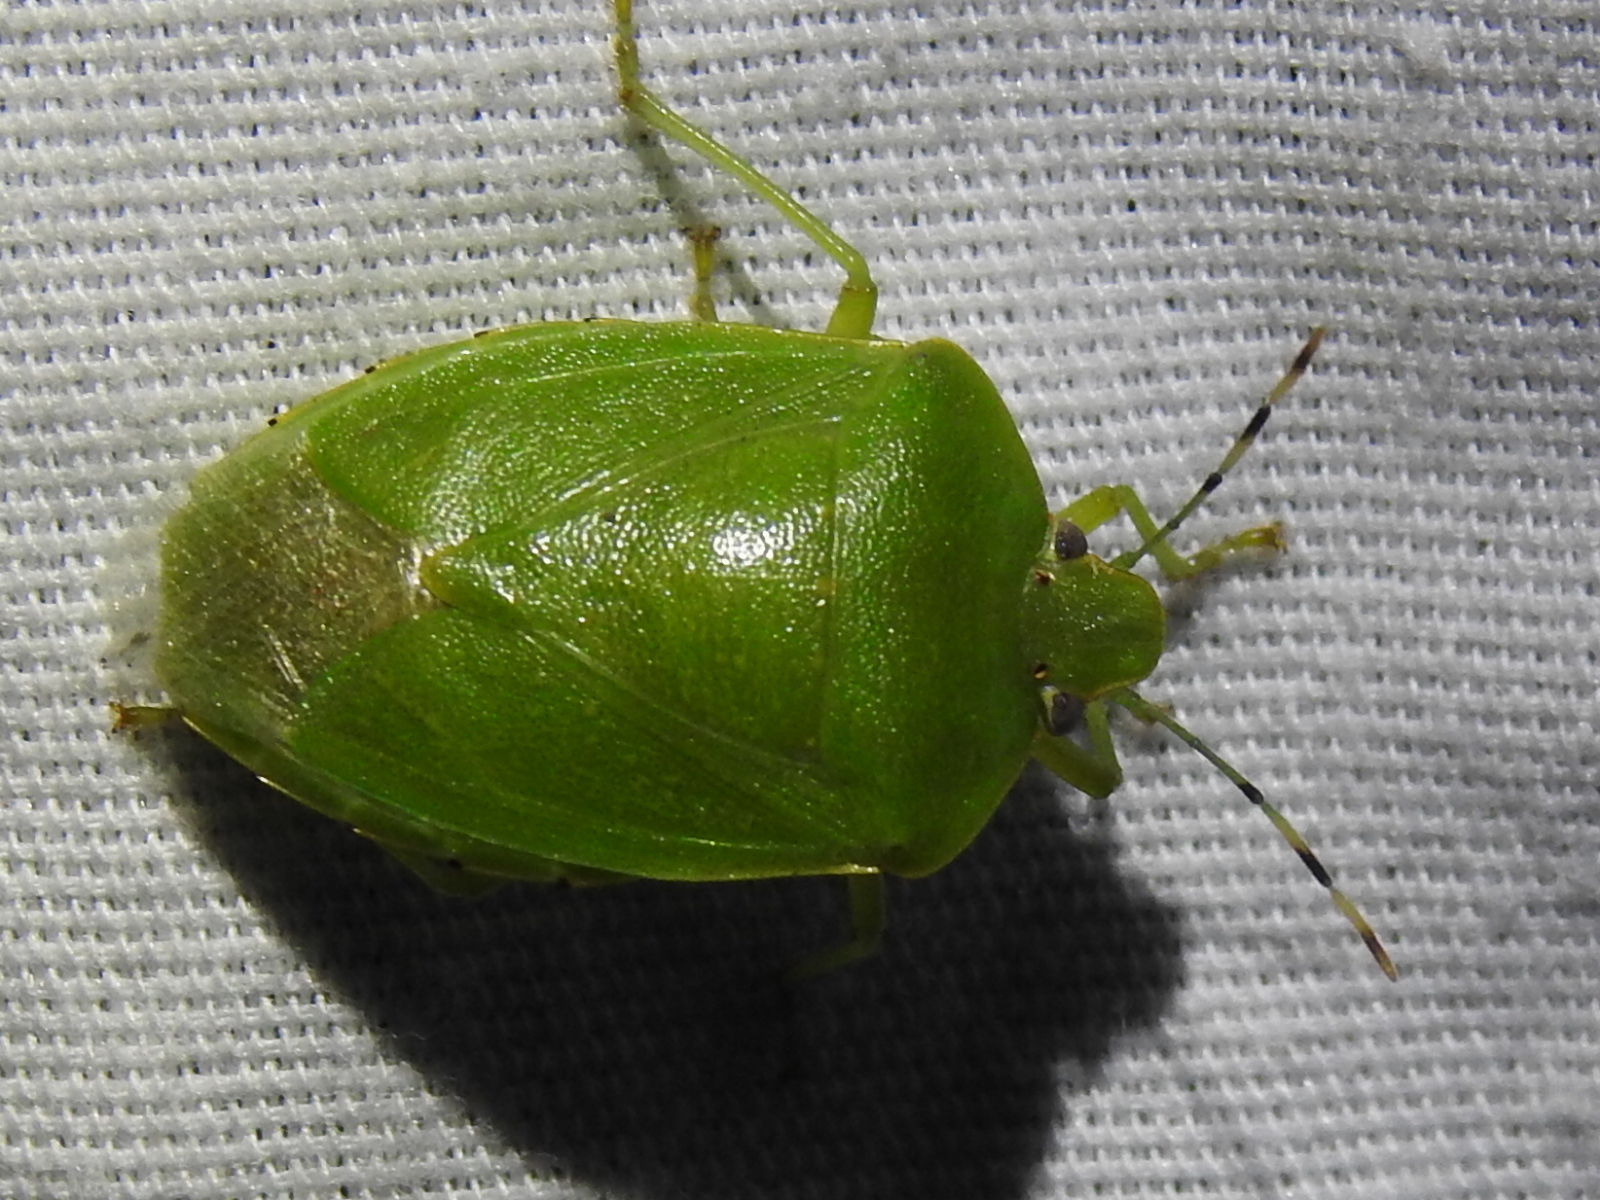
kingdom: Animalia
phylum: Arthropoda
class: Insecta
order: Hemiptera
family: Pentatomidae
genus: Chinavia
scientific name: Chinavia hilaris
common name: Green stink bug
